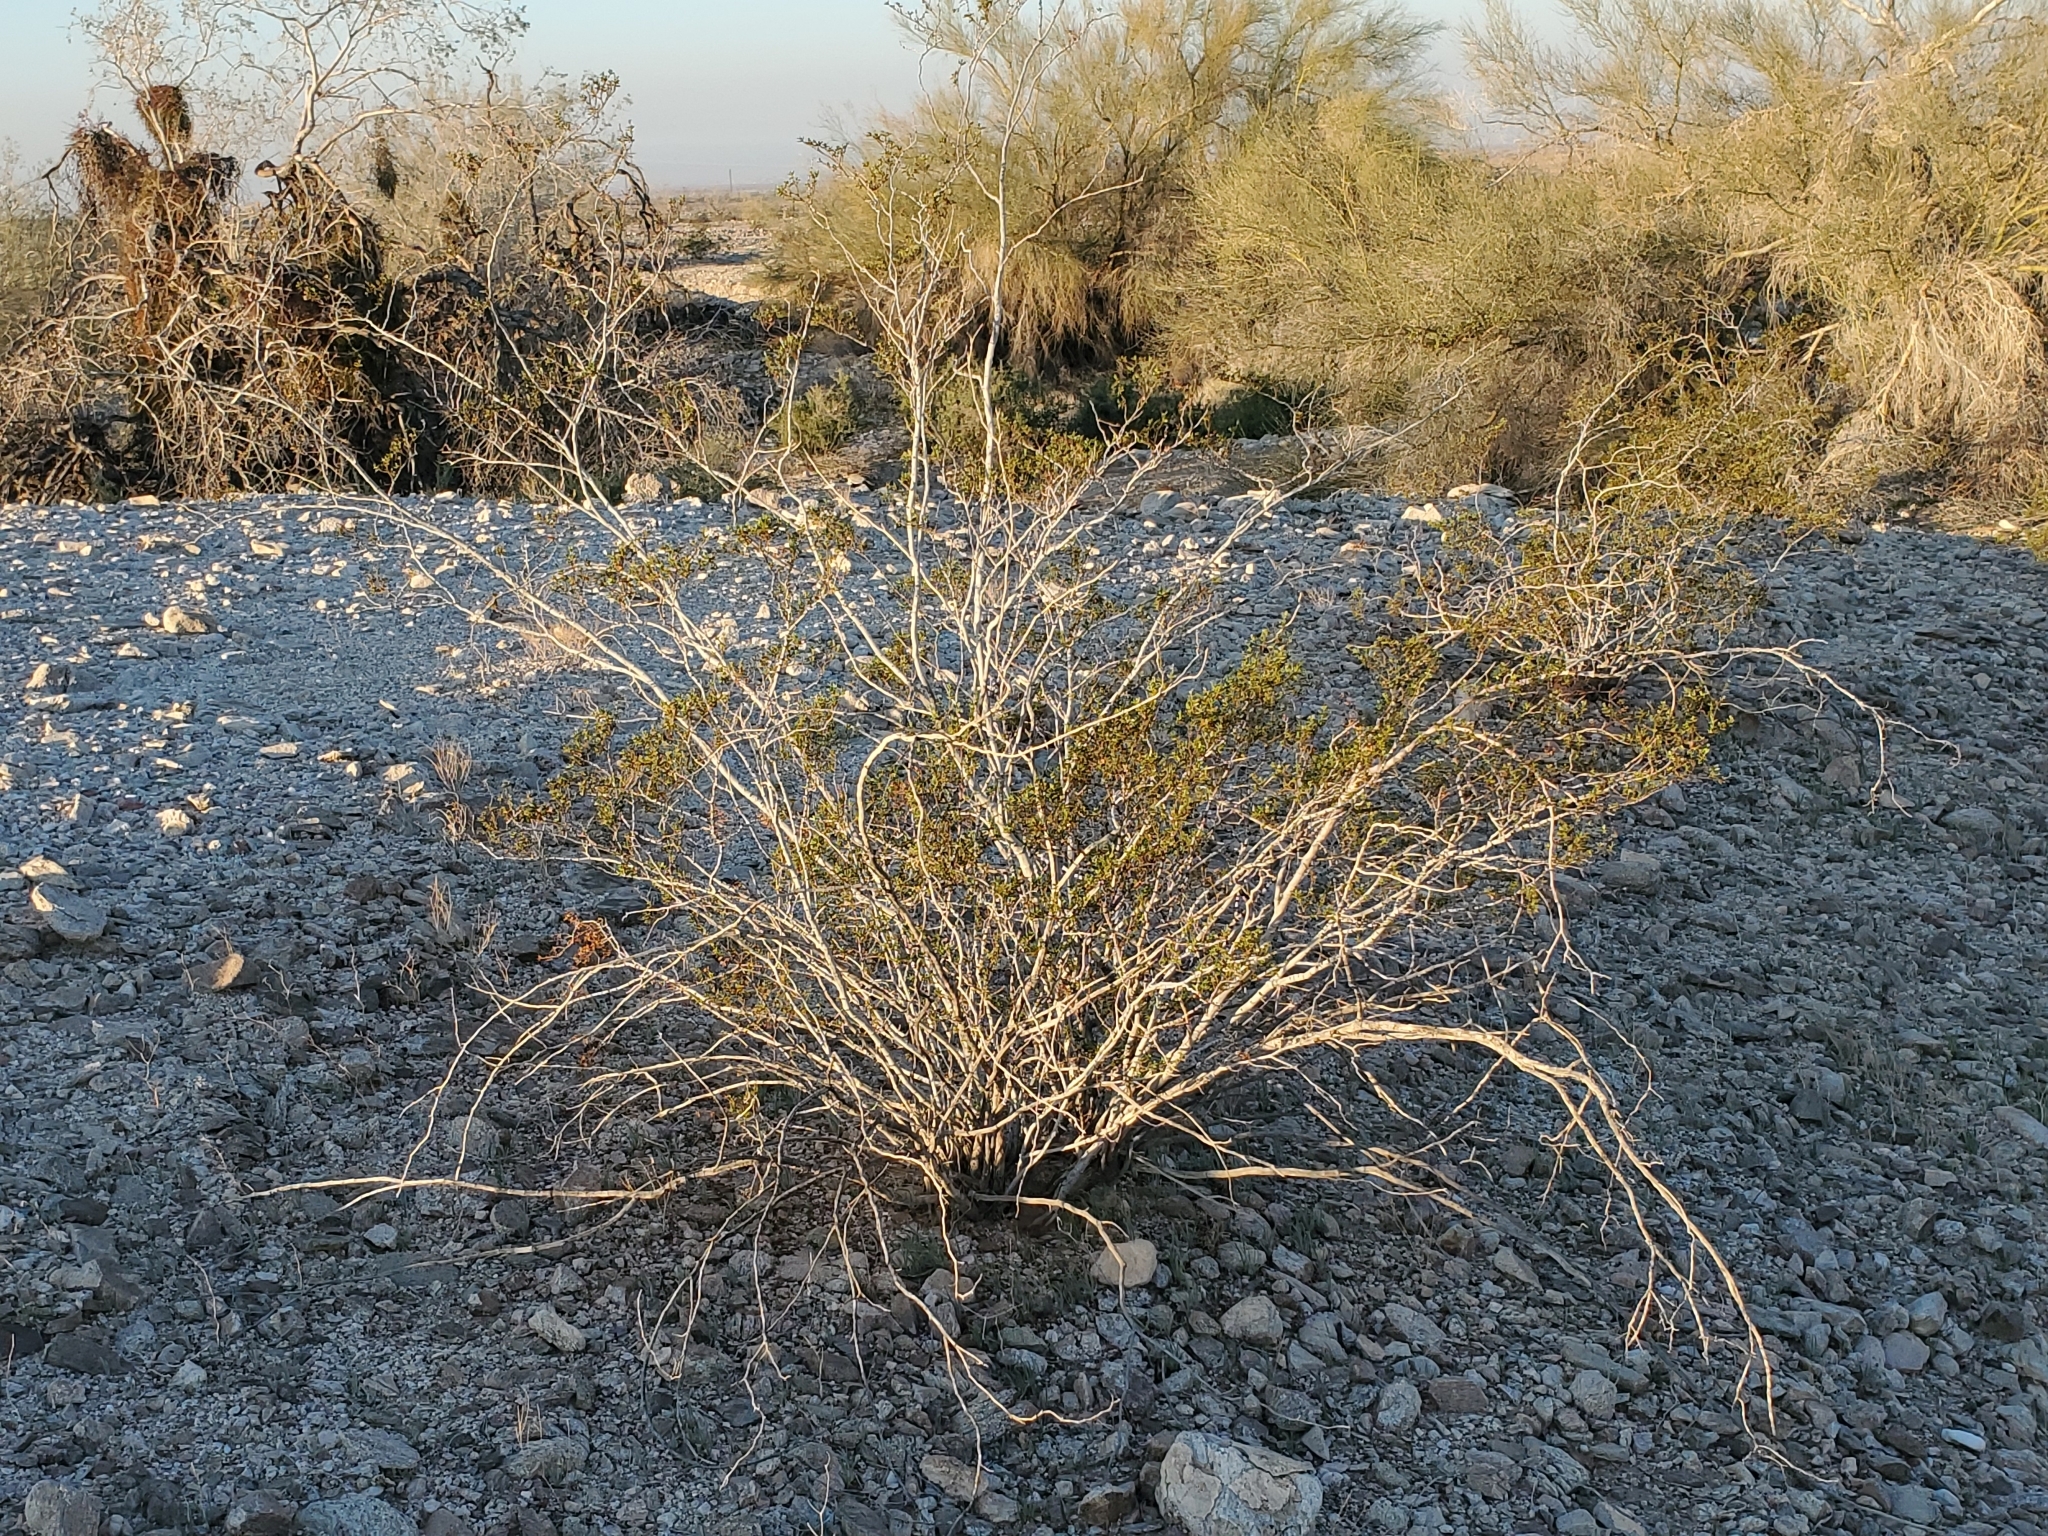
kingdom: Plantae
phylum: Tracheophyta
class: Magnoliopsida
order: Zygophyllales
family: Zygophyllaceae
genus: Larrea
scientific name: Larrea tridentata
